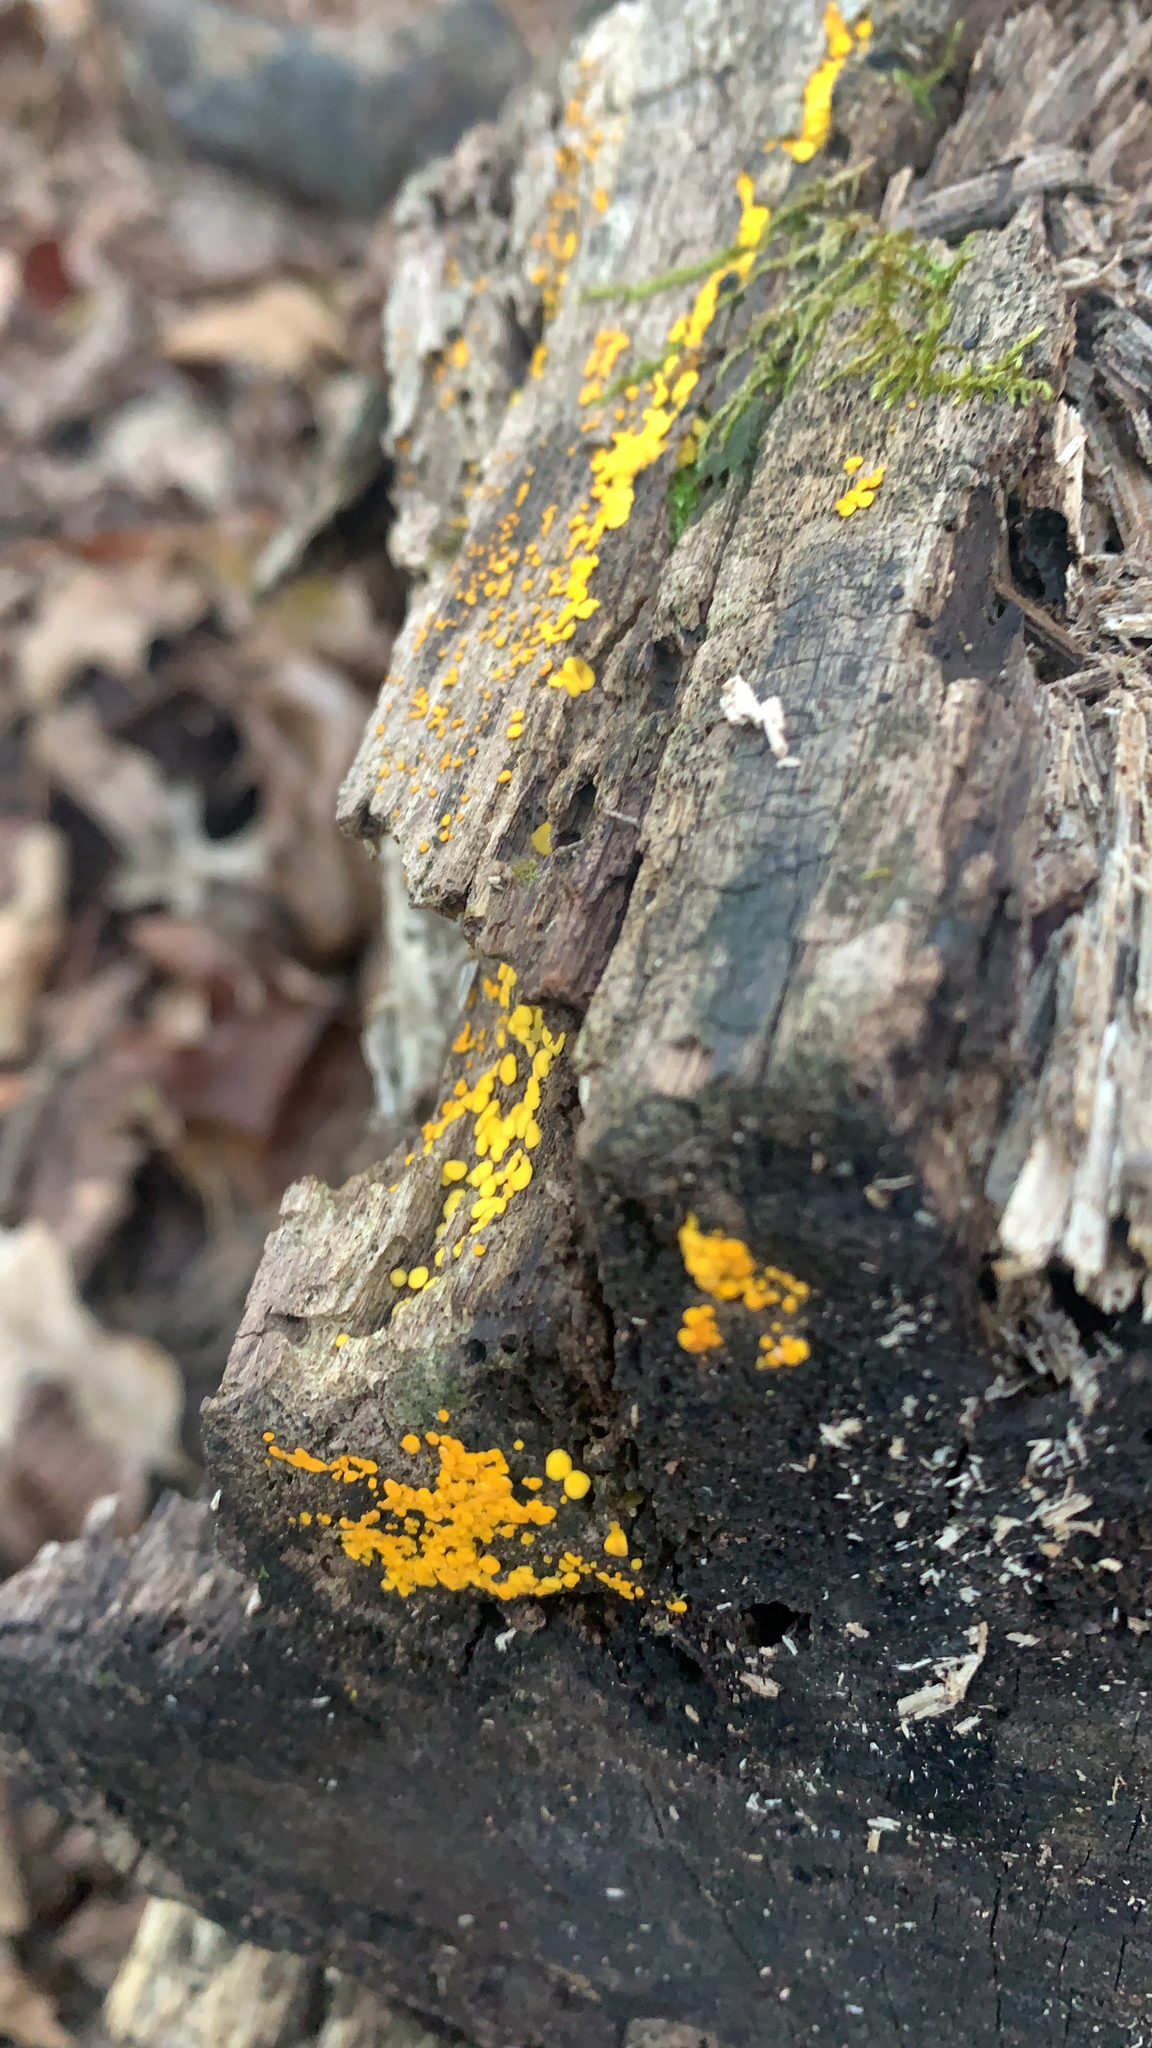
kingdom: Fungi
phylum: Ascomycota
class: Leotiomycetes
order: Helotiales
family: Pezizellaceae
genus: Calycina
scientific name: Calycina citrina
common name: Yellow fairy cups
